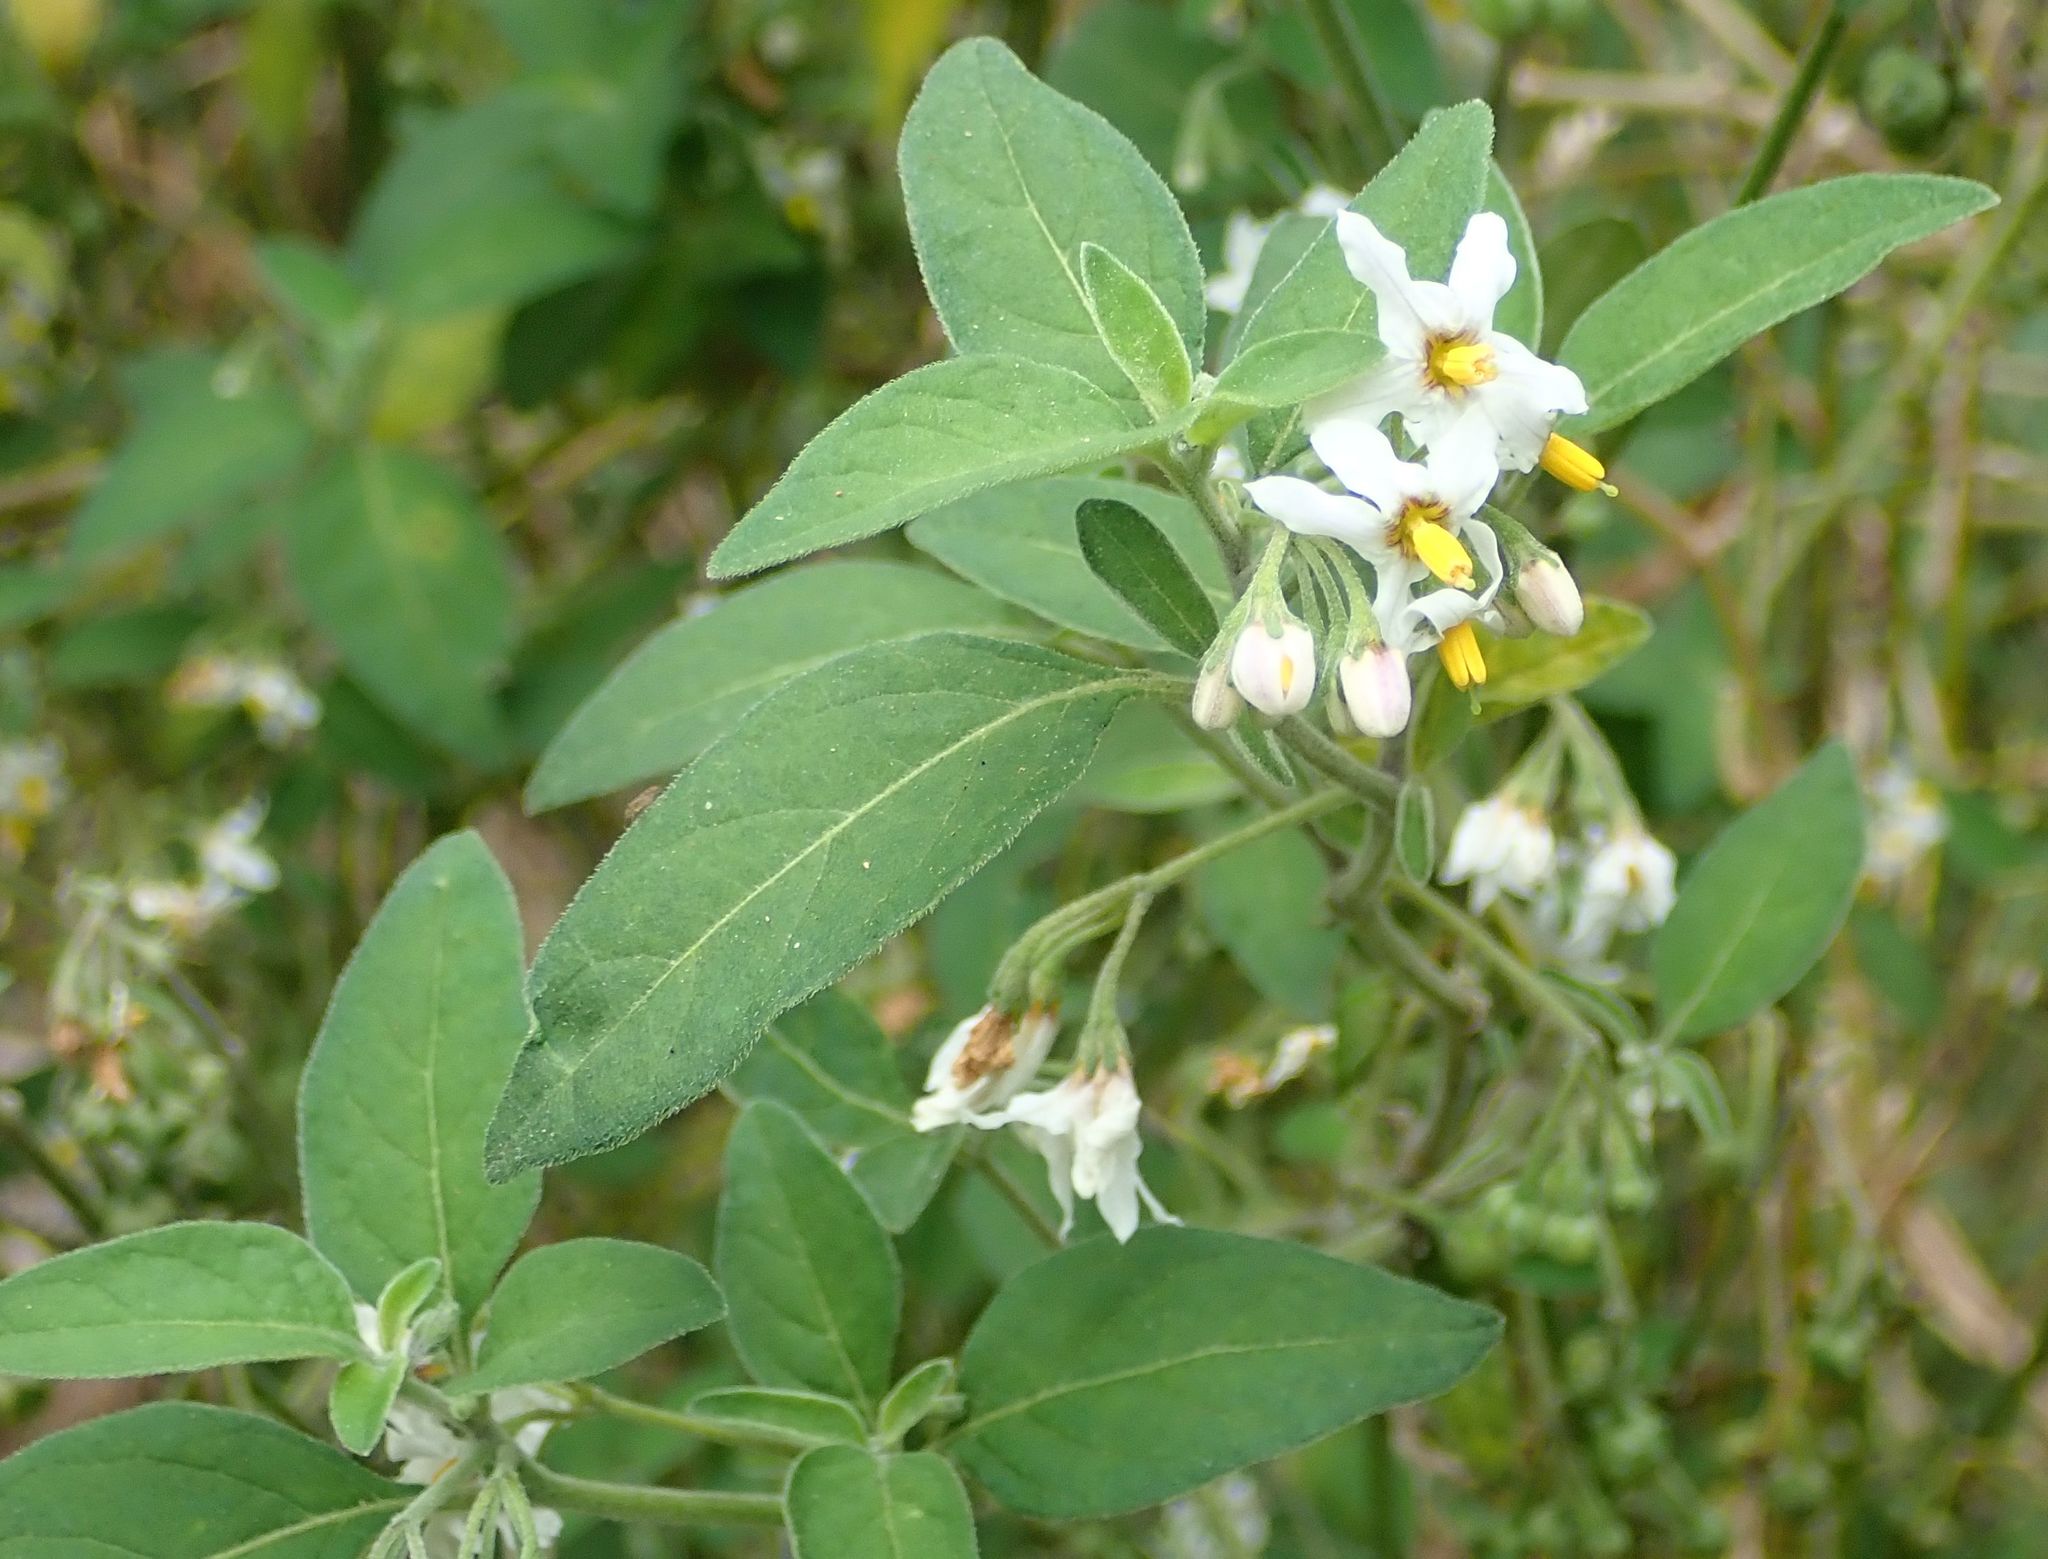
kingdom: Plantae
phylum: Tracheophyta
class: Magnoliopsida
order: Solanales
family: Solanaceae
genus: Solanum
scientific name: Solanum chenopodioides
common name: Tall nightshade
